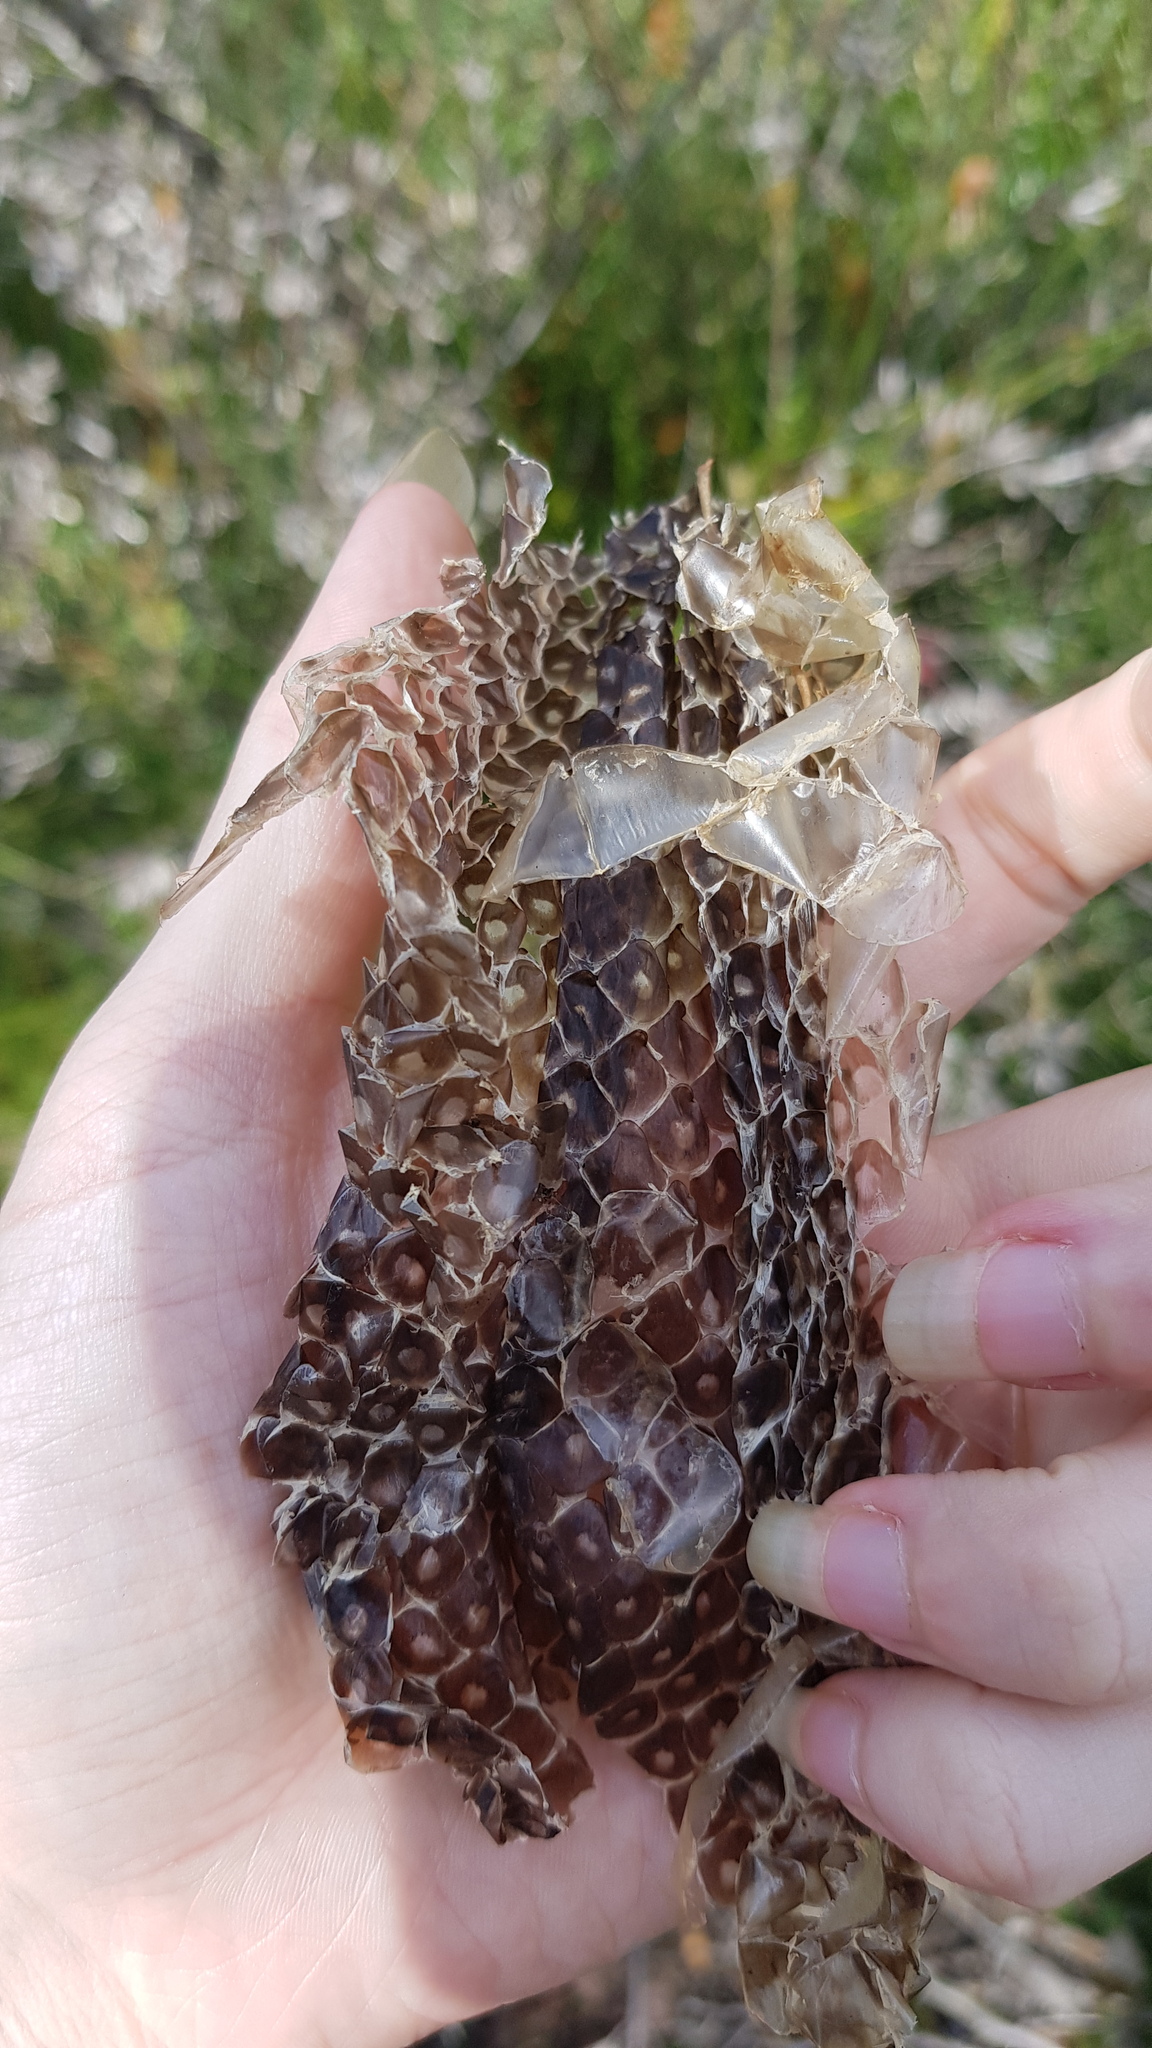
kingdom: Animalia
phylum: Chordata
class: Squamata
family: Pythonidae
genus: Morelia
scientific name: Morelia spilota
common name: Carpet python
